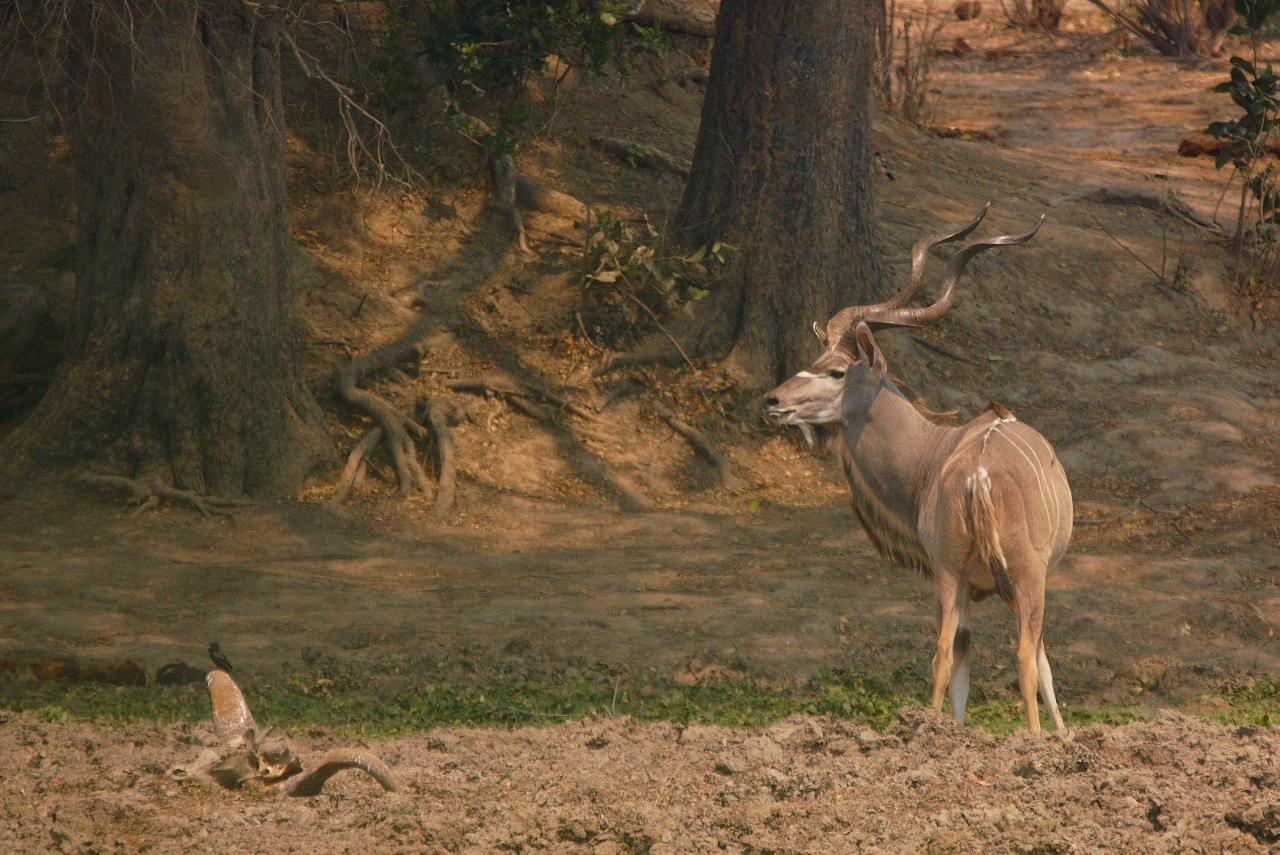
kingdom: Animalia
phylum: Chordata
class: Mammalia
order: Artiodactyla
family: Bovidae
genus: Tragelaphus
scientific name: Tragelaphus strepsiceros
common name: Greater kudu
